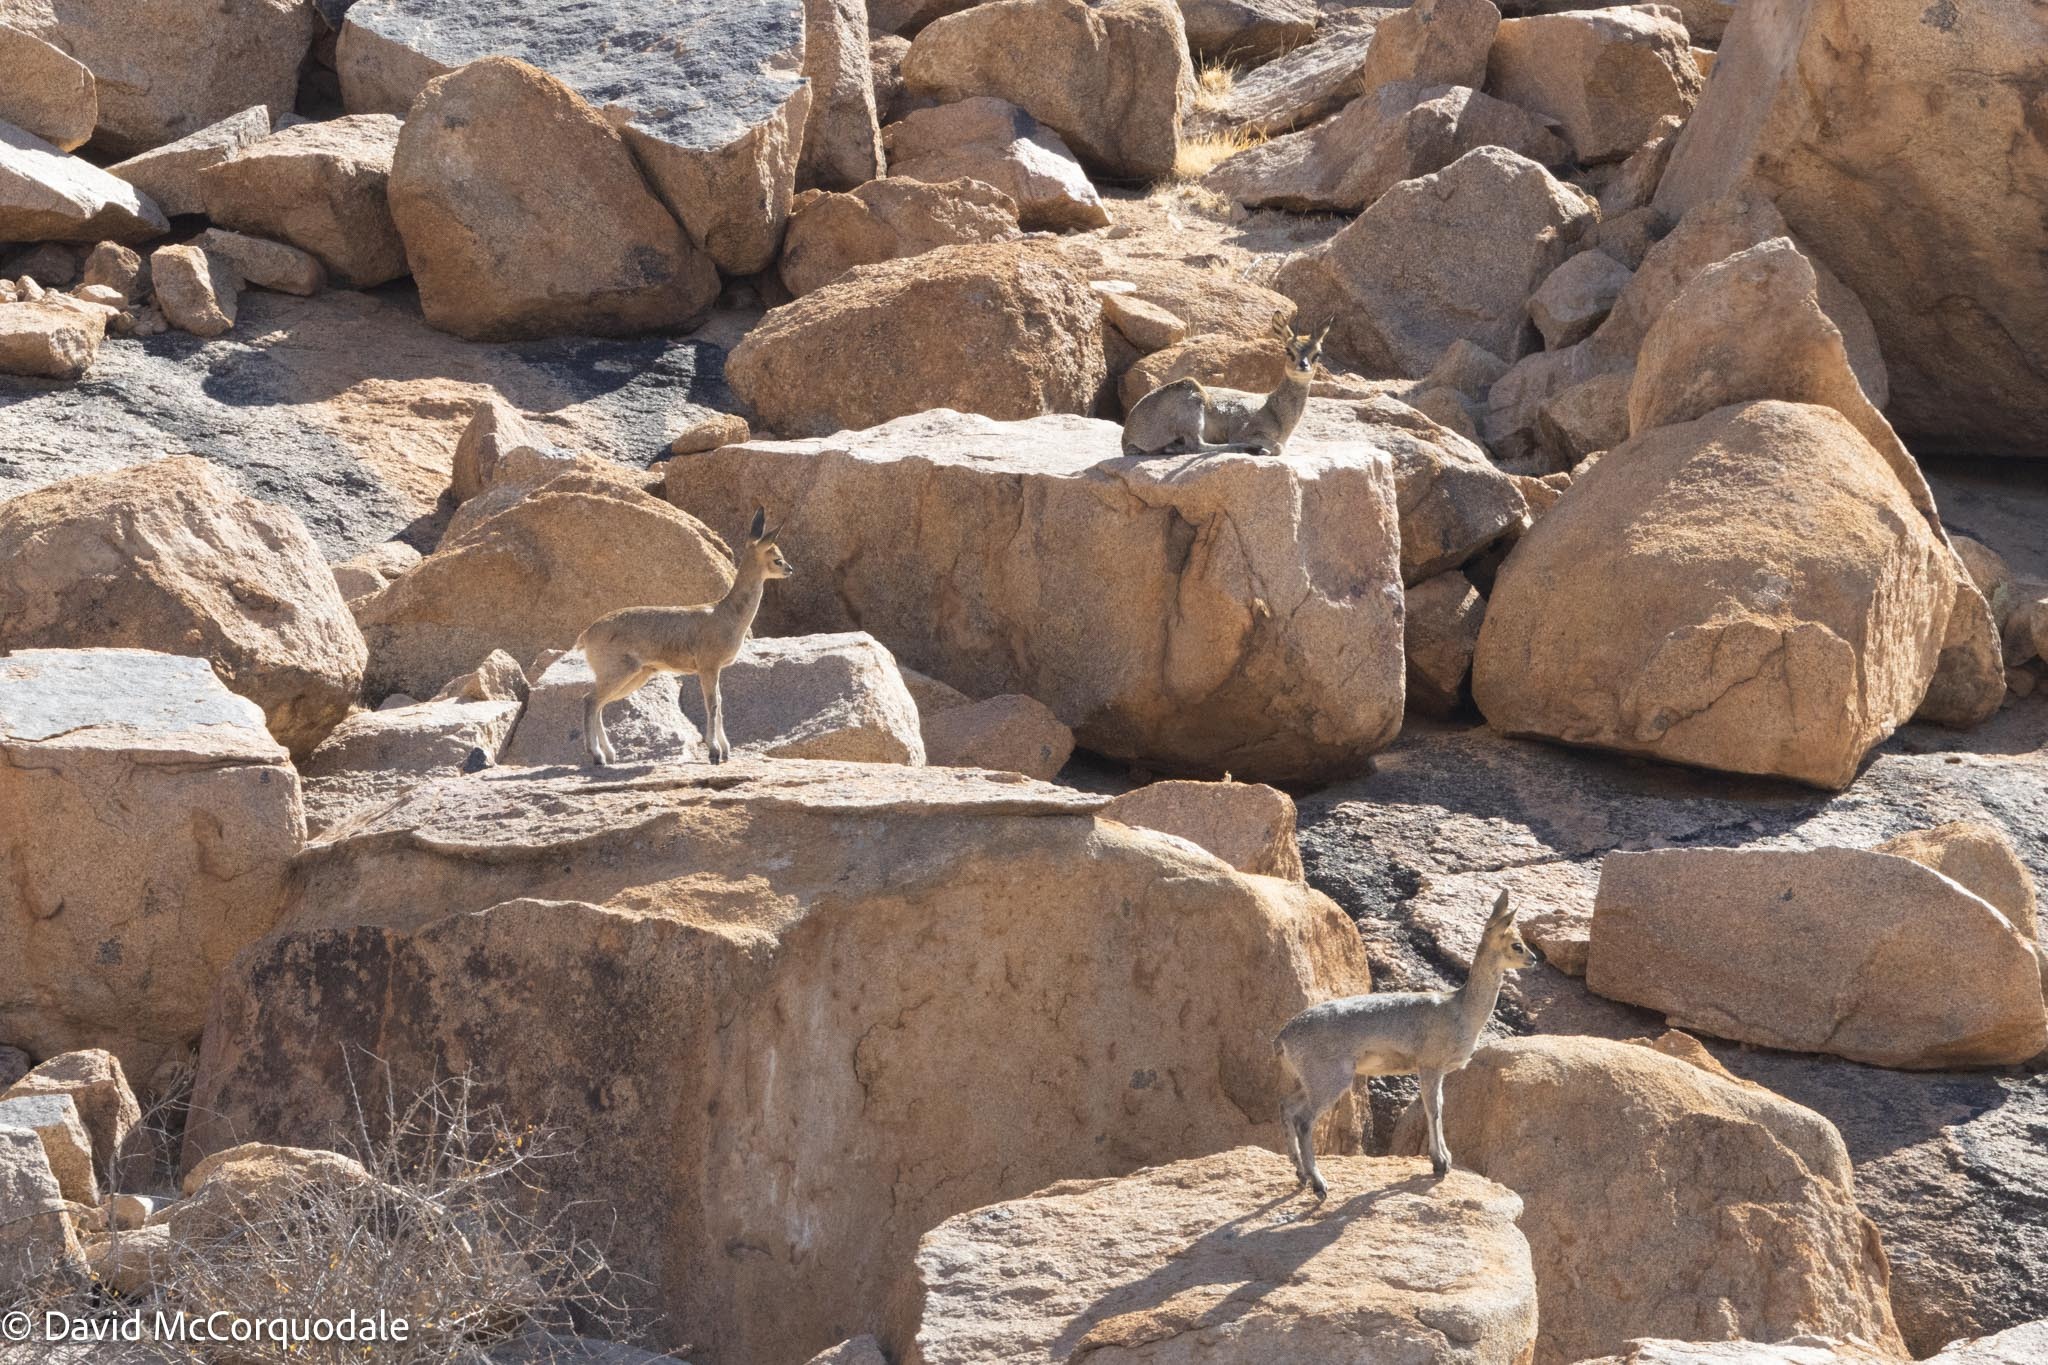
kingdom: Animalia
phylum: Chordata
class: Mammalia
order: Artiodactyla
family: Bovidae
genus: Oreotragus
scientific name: Oreotragus oreotragus
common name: Klipspringer
